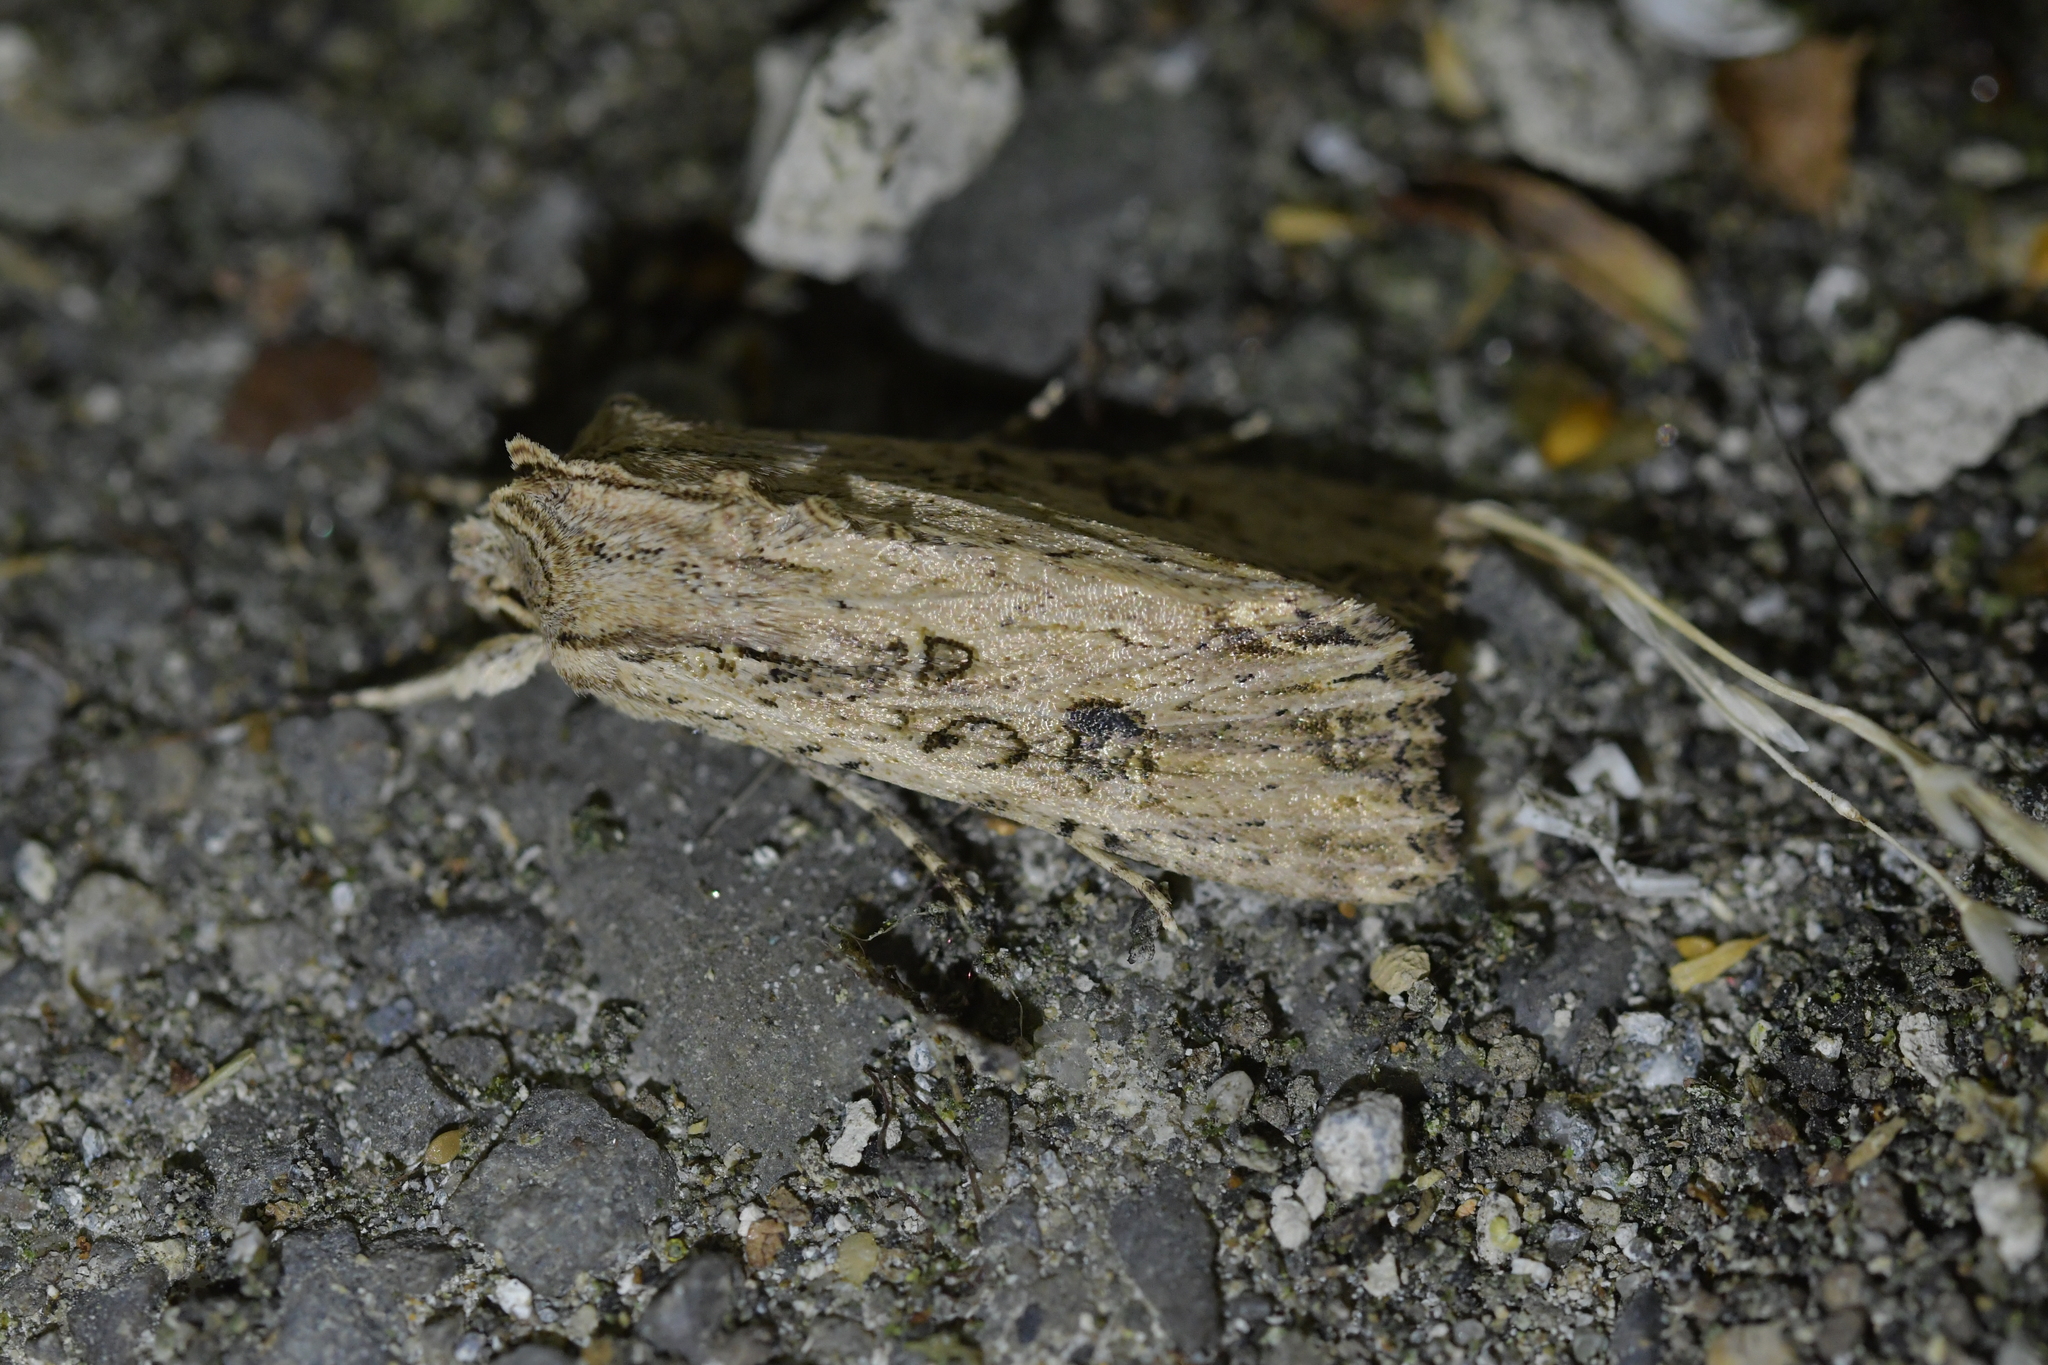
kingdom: Animalia
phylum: Arthropoda
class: Insecta
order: Lepidoptera
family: Noctuidae
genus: Ichneutica
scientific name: Ichneutica lignana
